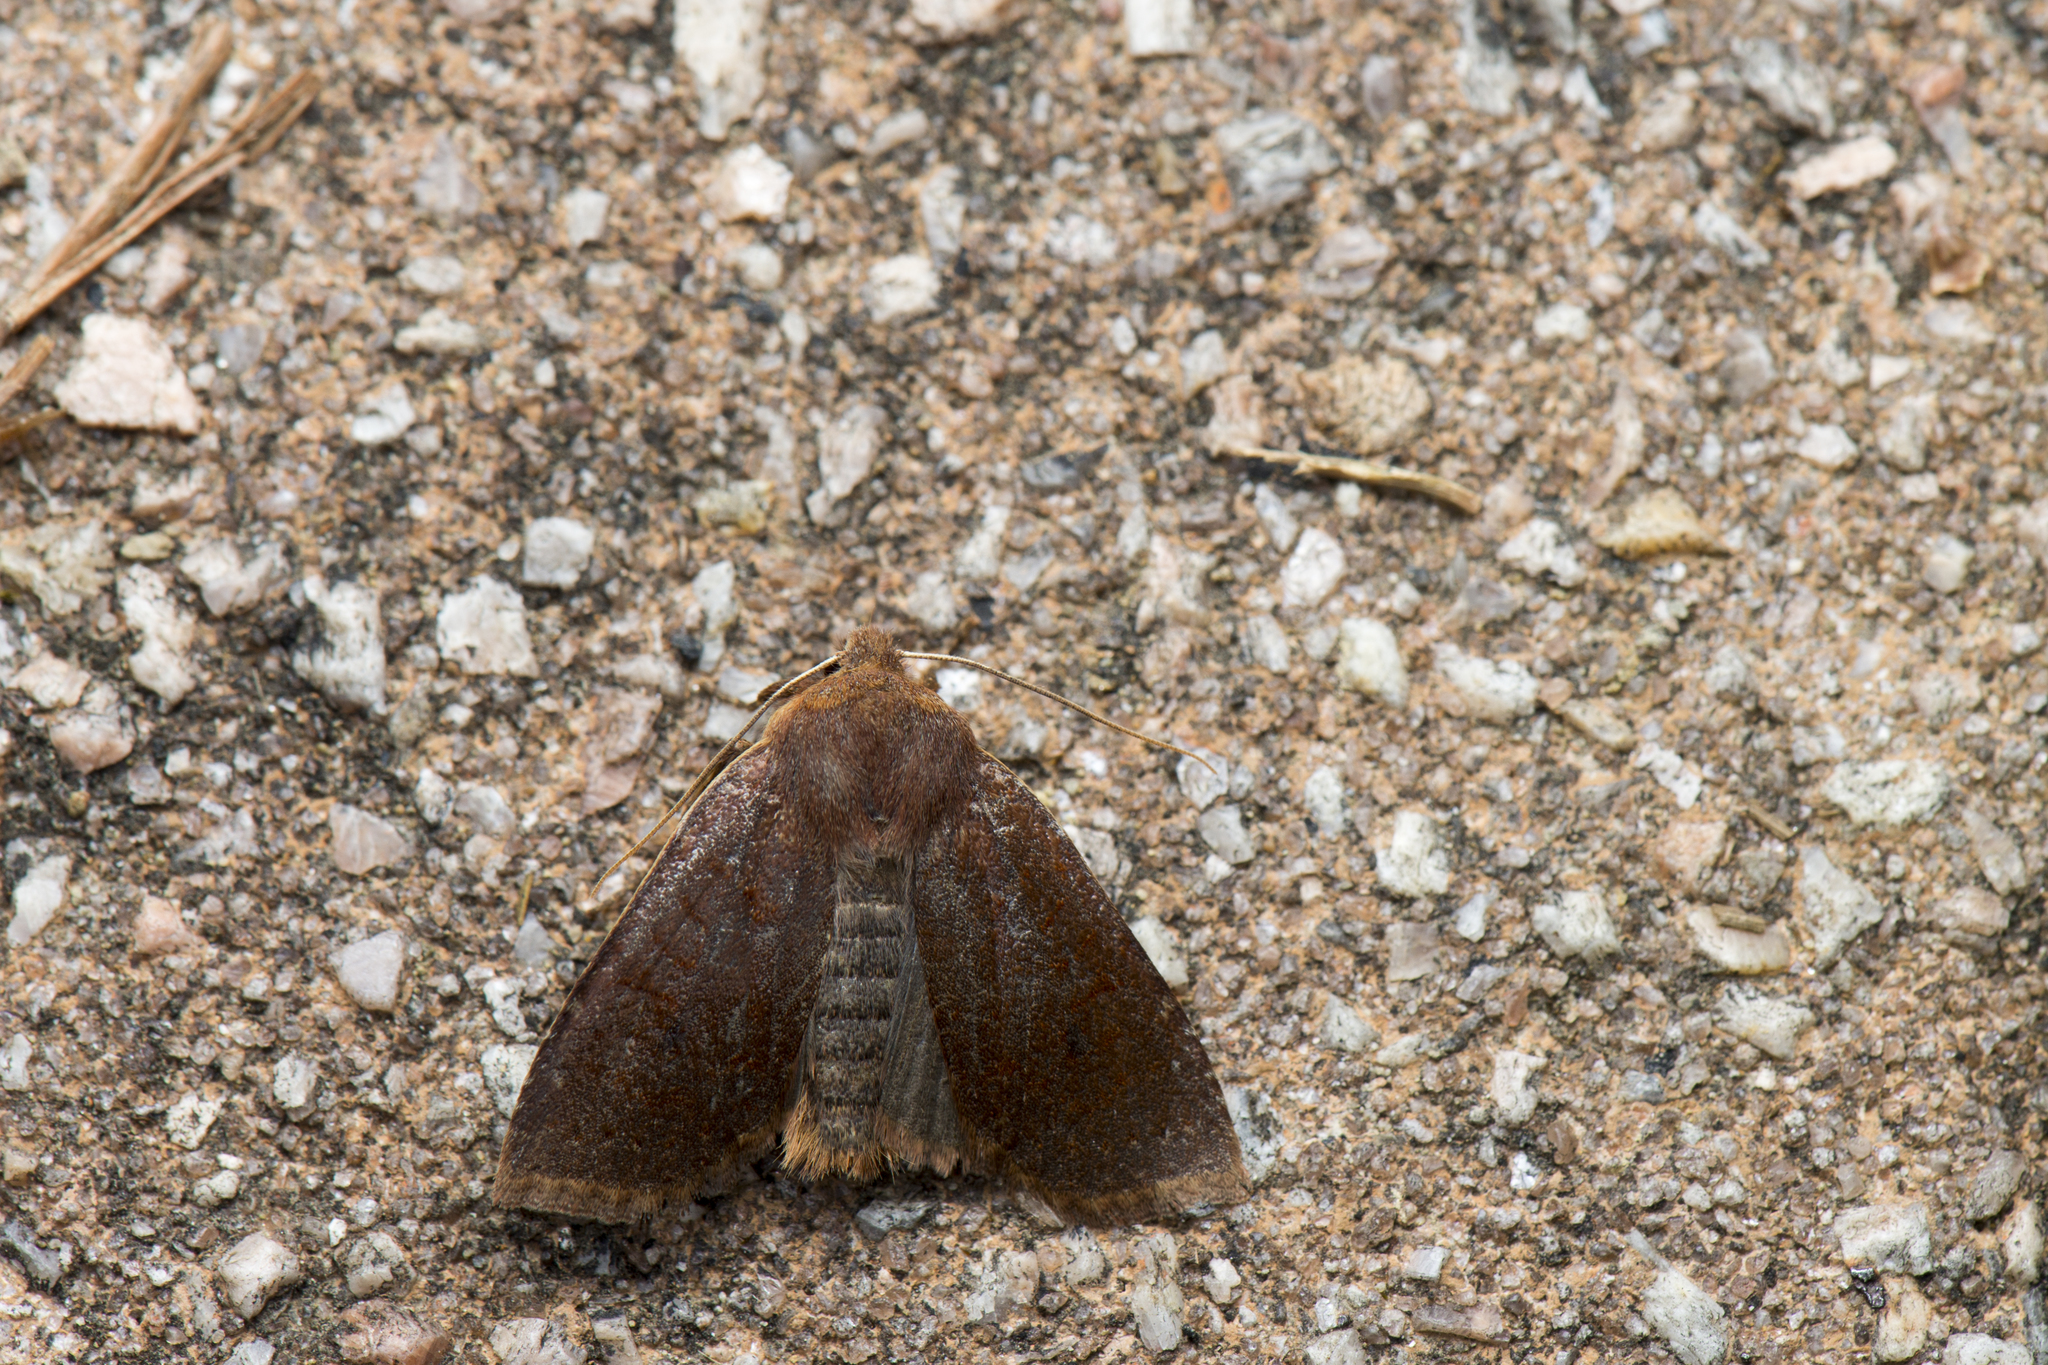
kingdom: Animalia
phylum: Arthropoda
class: Insecta
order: Lepidoptera
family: Noctuidae
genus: Conistra
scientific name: Conistra takasago
